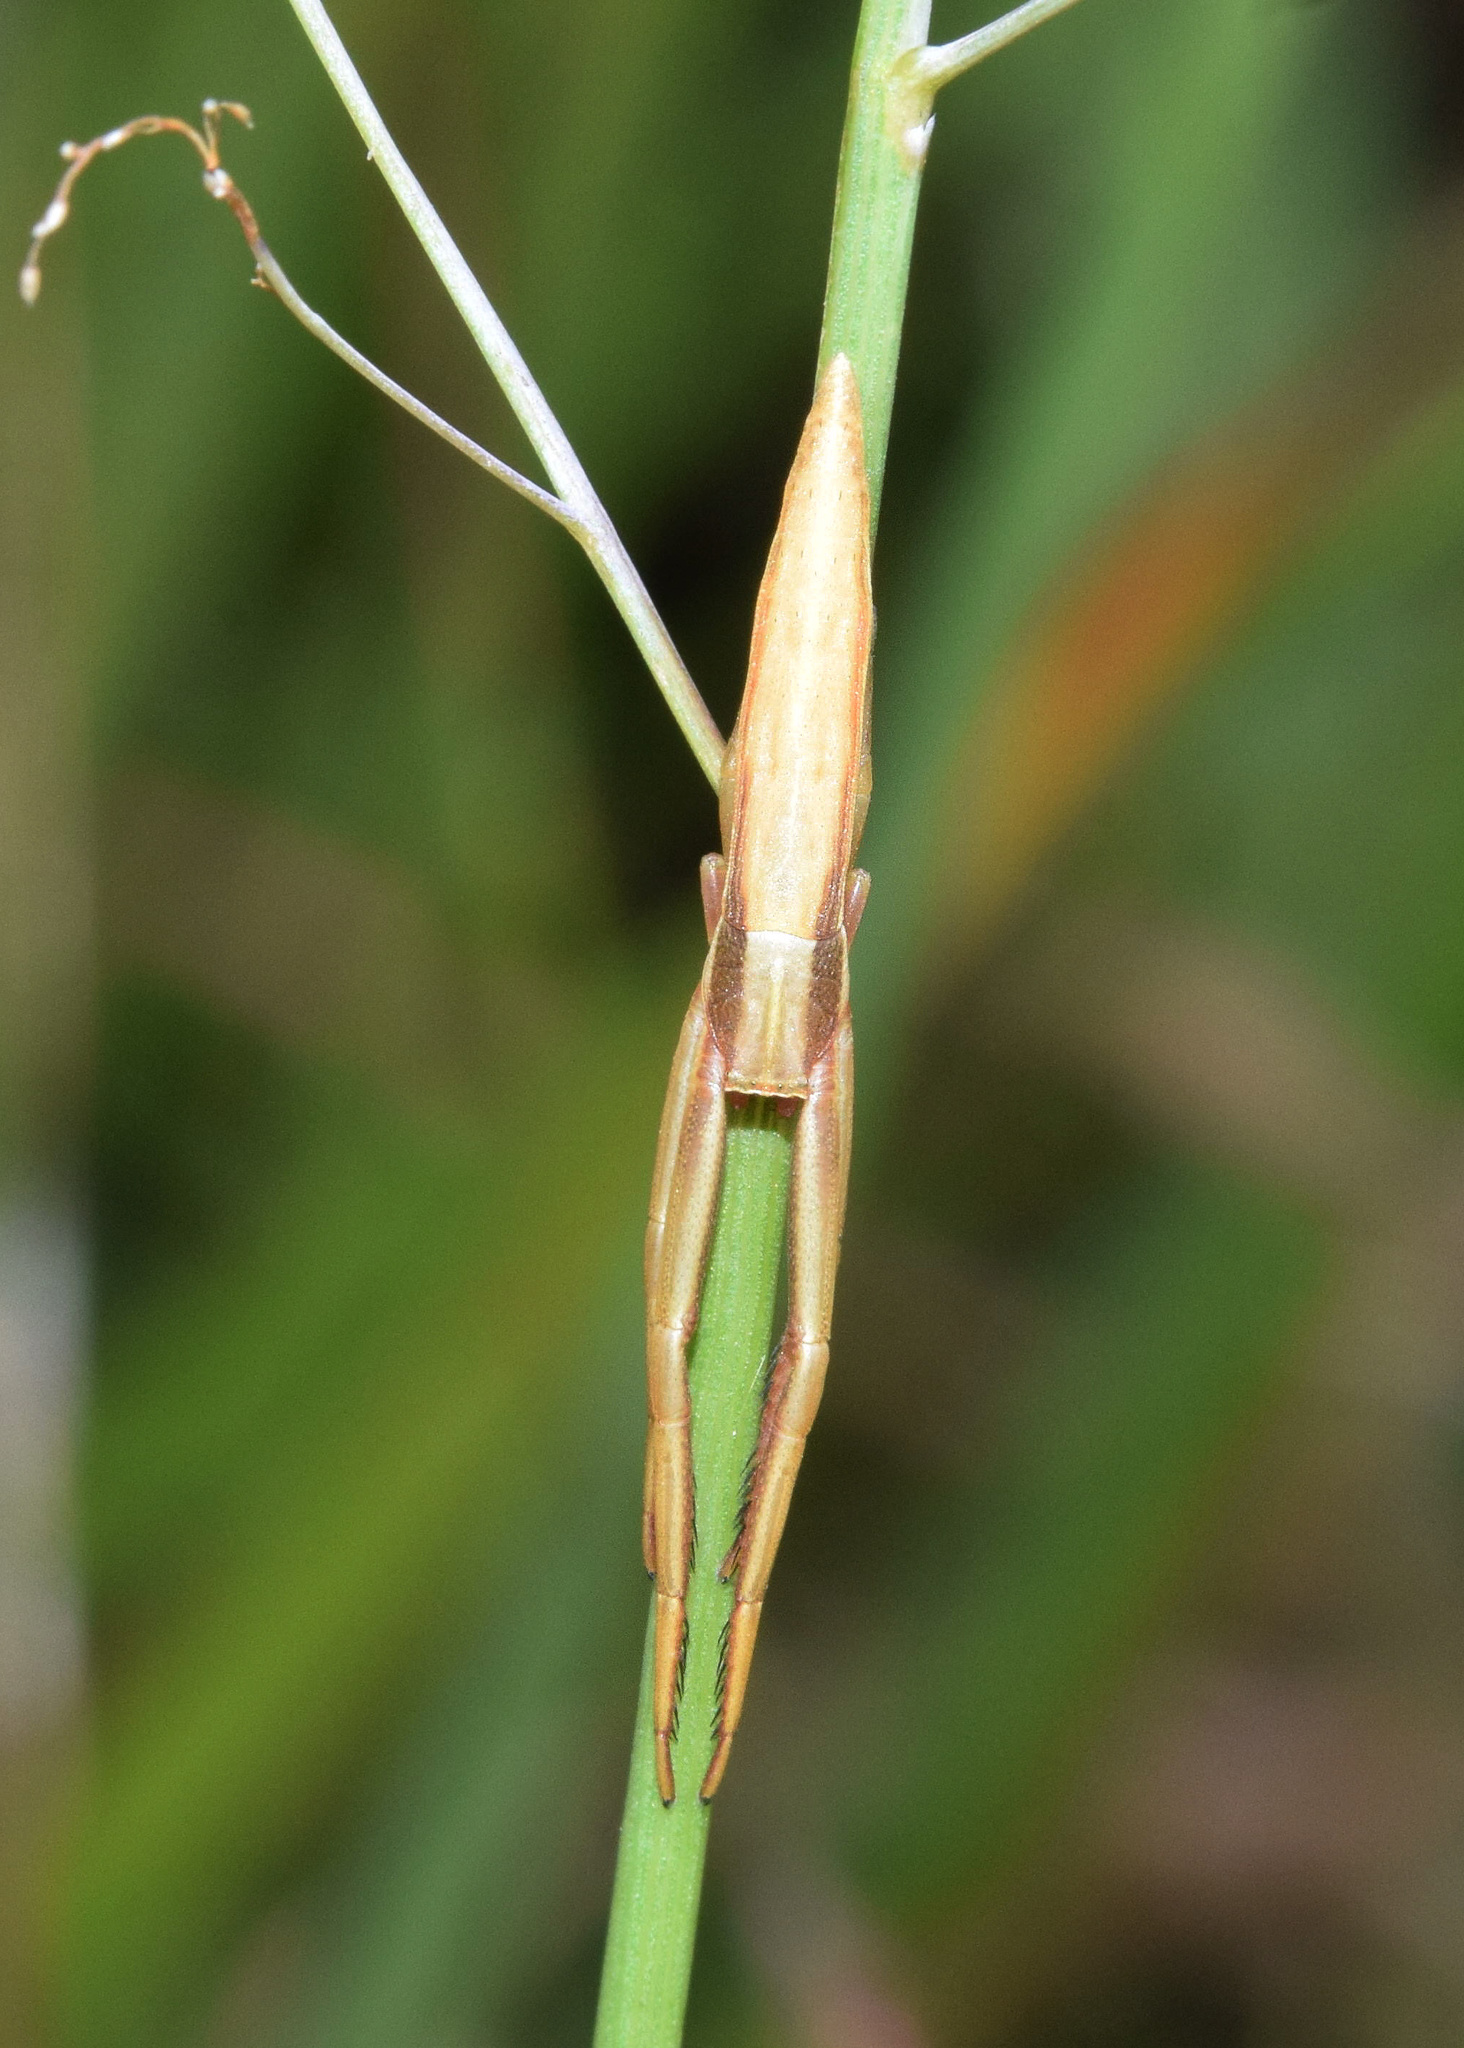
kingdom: Animalia
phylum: Arthropoda
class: Arachnida
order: Araneae
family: Thomisidae
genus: Runcinia
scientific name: Runcinia johnstoni
